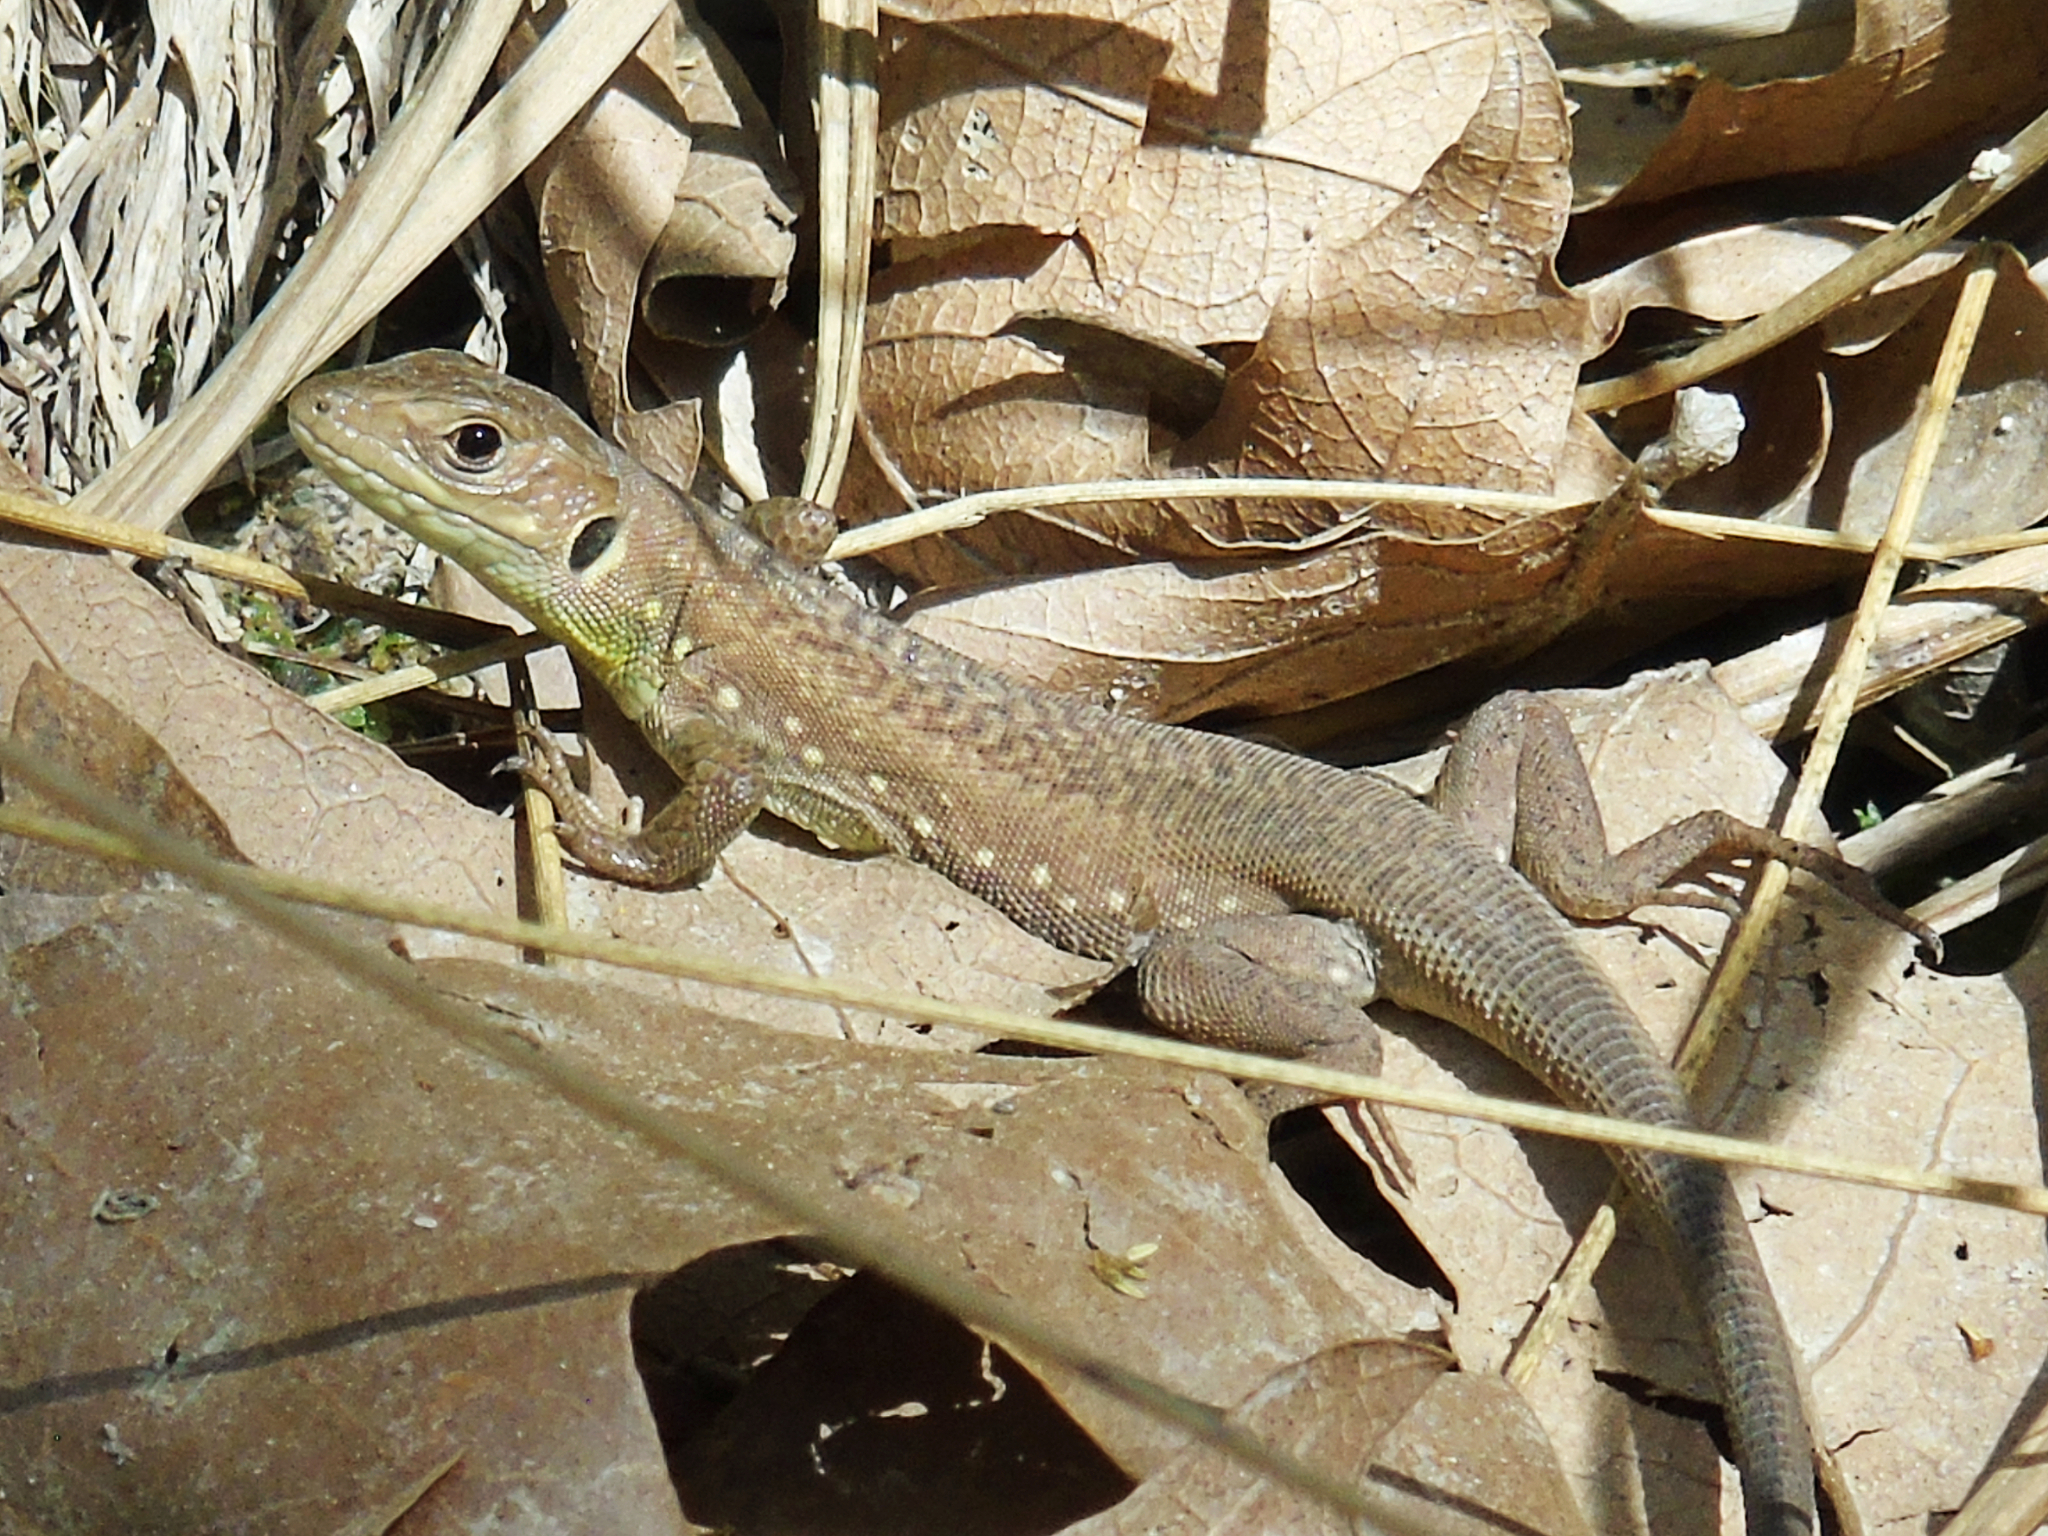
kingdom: Animalia
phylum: Chordata
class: Squamata
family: Lacertidae
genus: Lacerta
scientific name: Lacerta trilineata
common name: Balkan green lizard
